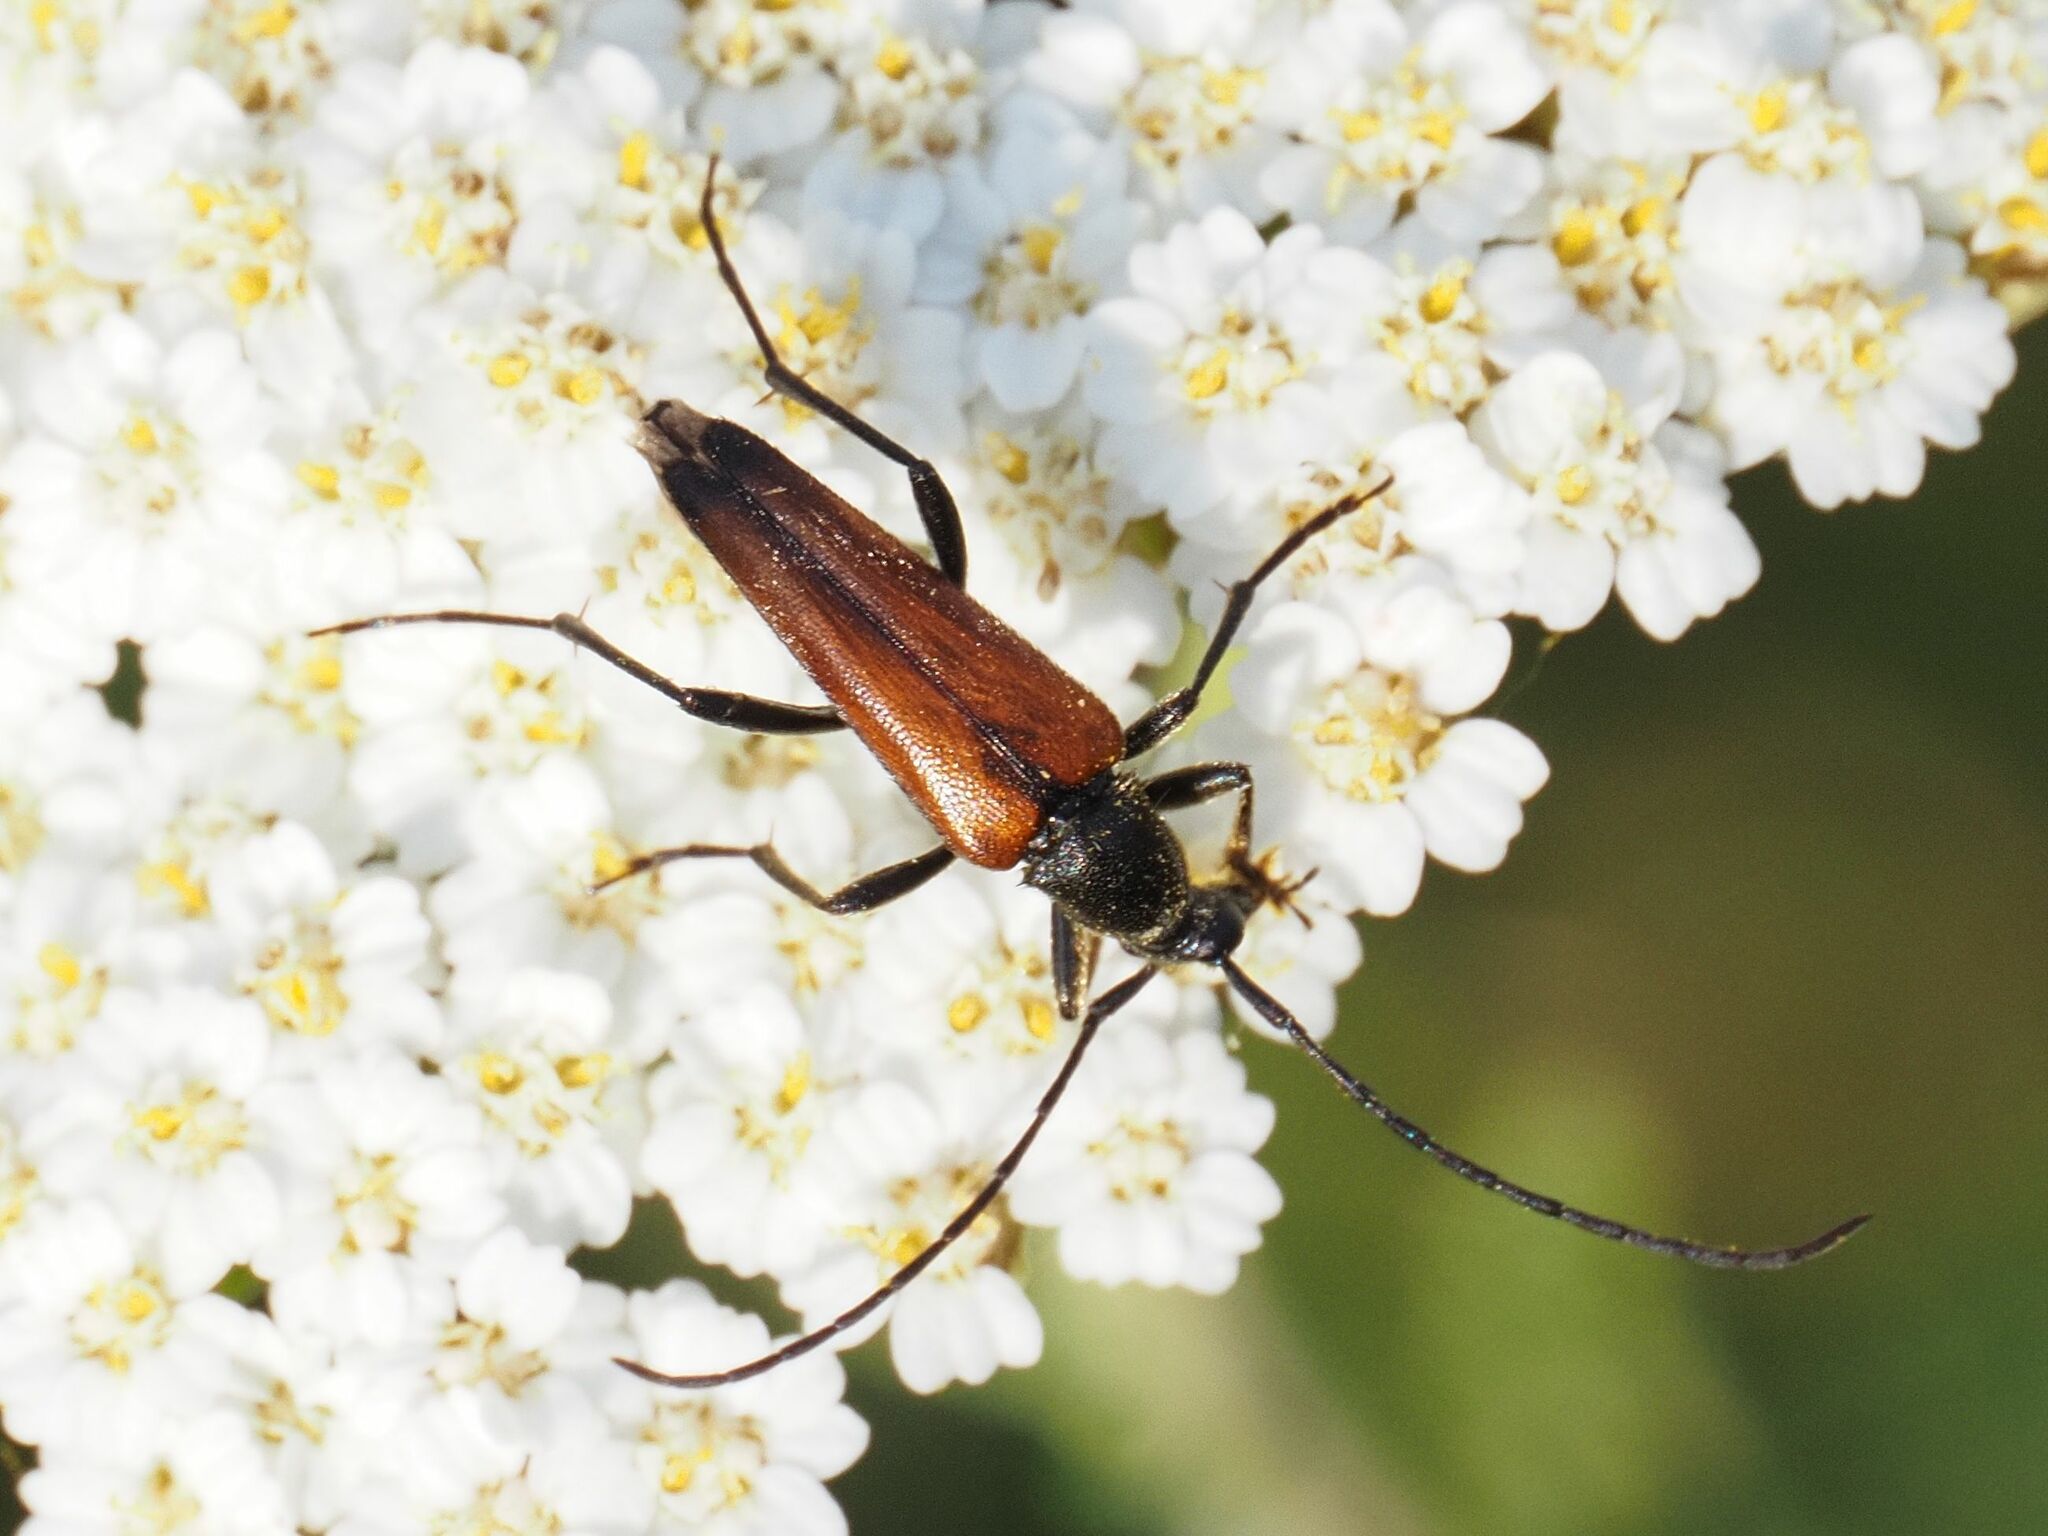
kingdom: Animalia
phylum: Arthropoda
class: Insecta
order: Coleoptera
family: Cerambycidae
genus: Stenurella
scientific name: Stenurella bifasciata
